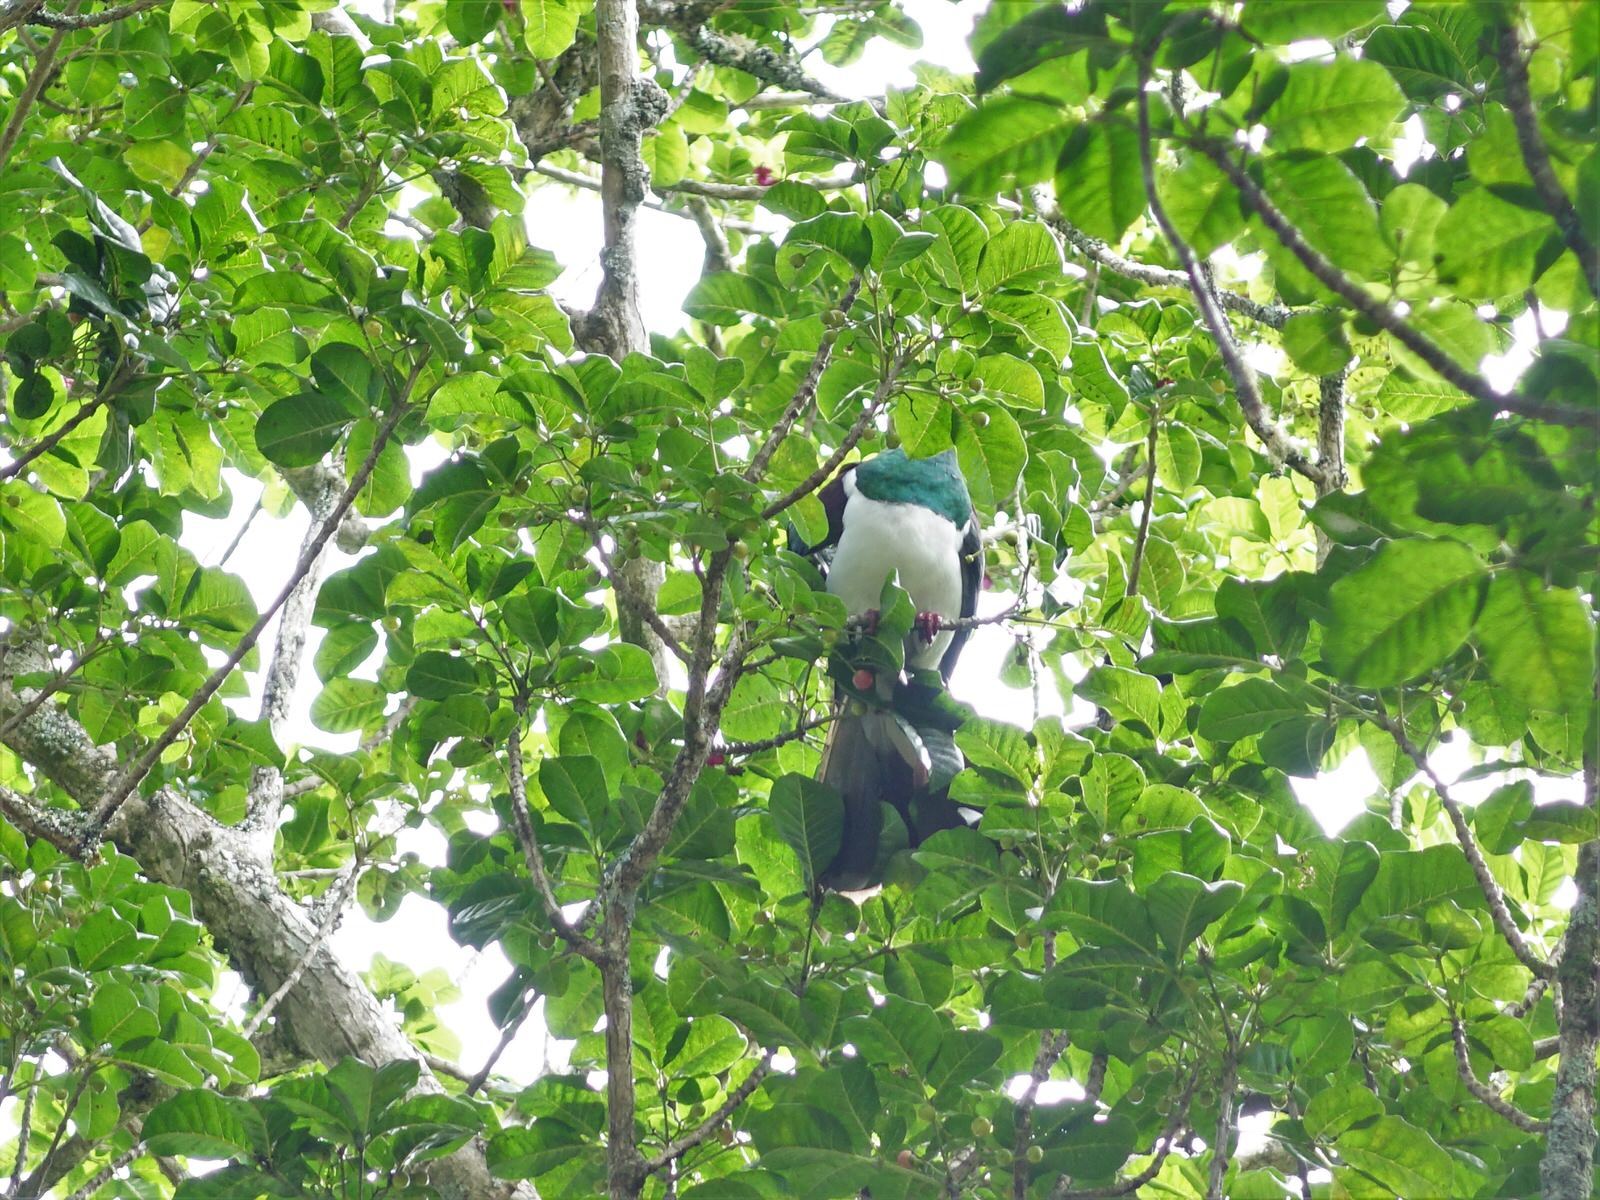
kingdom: Animalia
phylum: Chordata
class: Aves
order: Columbiformes
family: Columbidae
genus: Hemiphaga
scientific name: Hemiphaga novaeseelandiae
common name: New zealand pigeon
